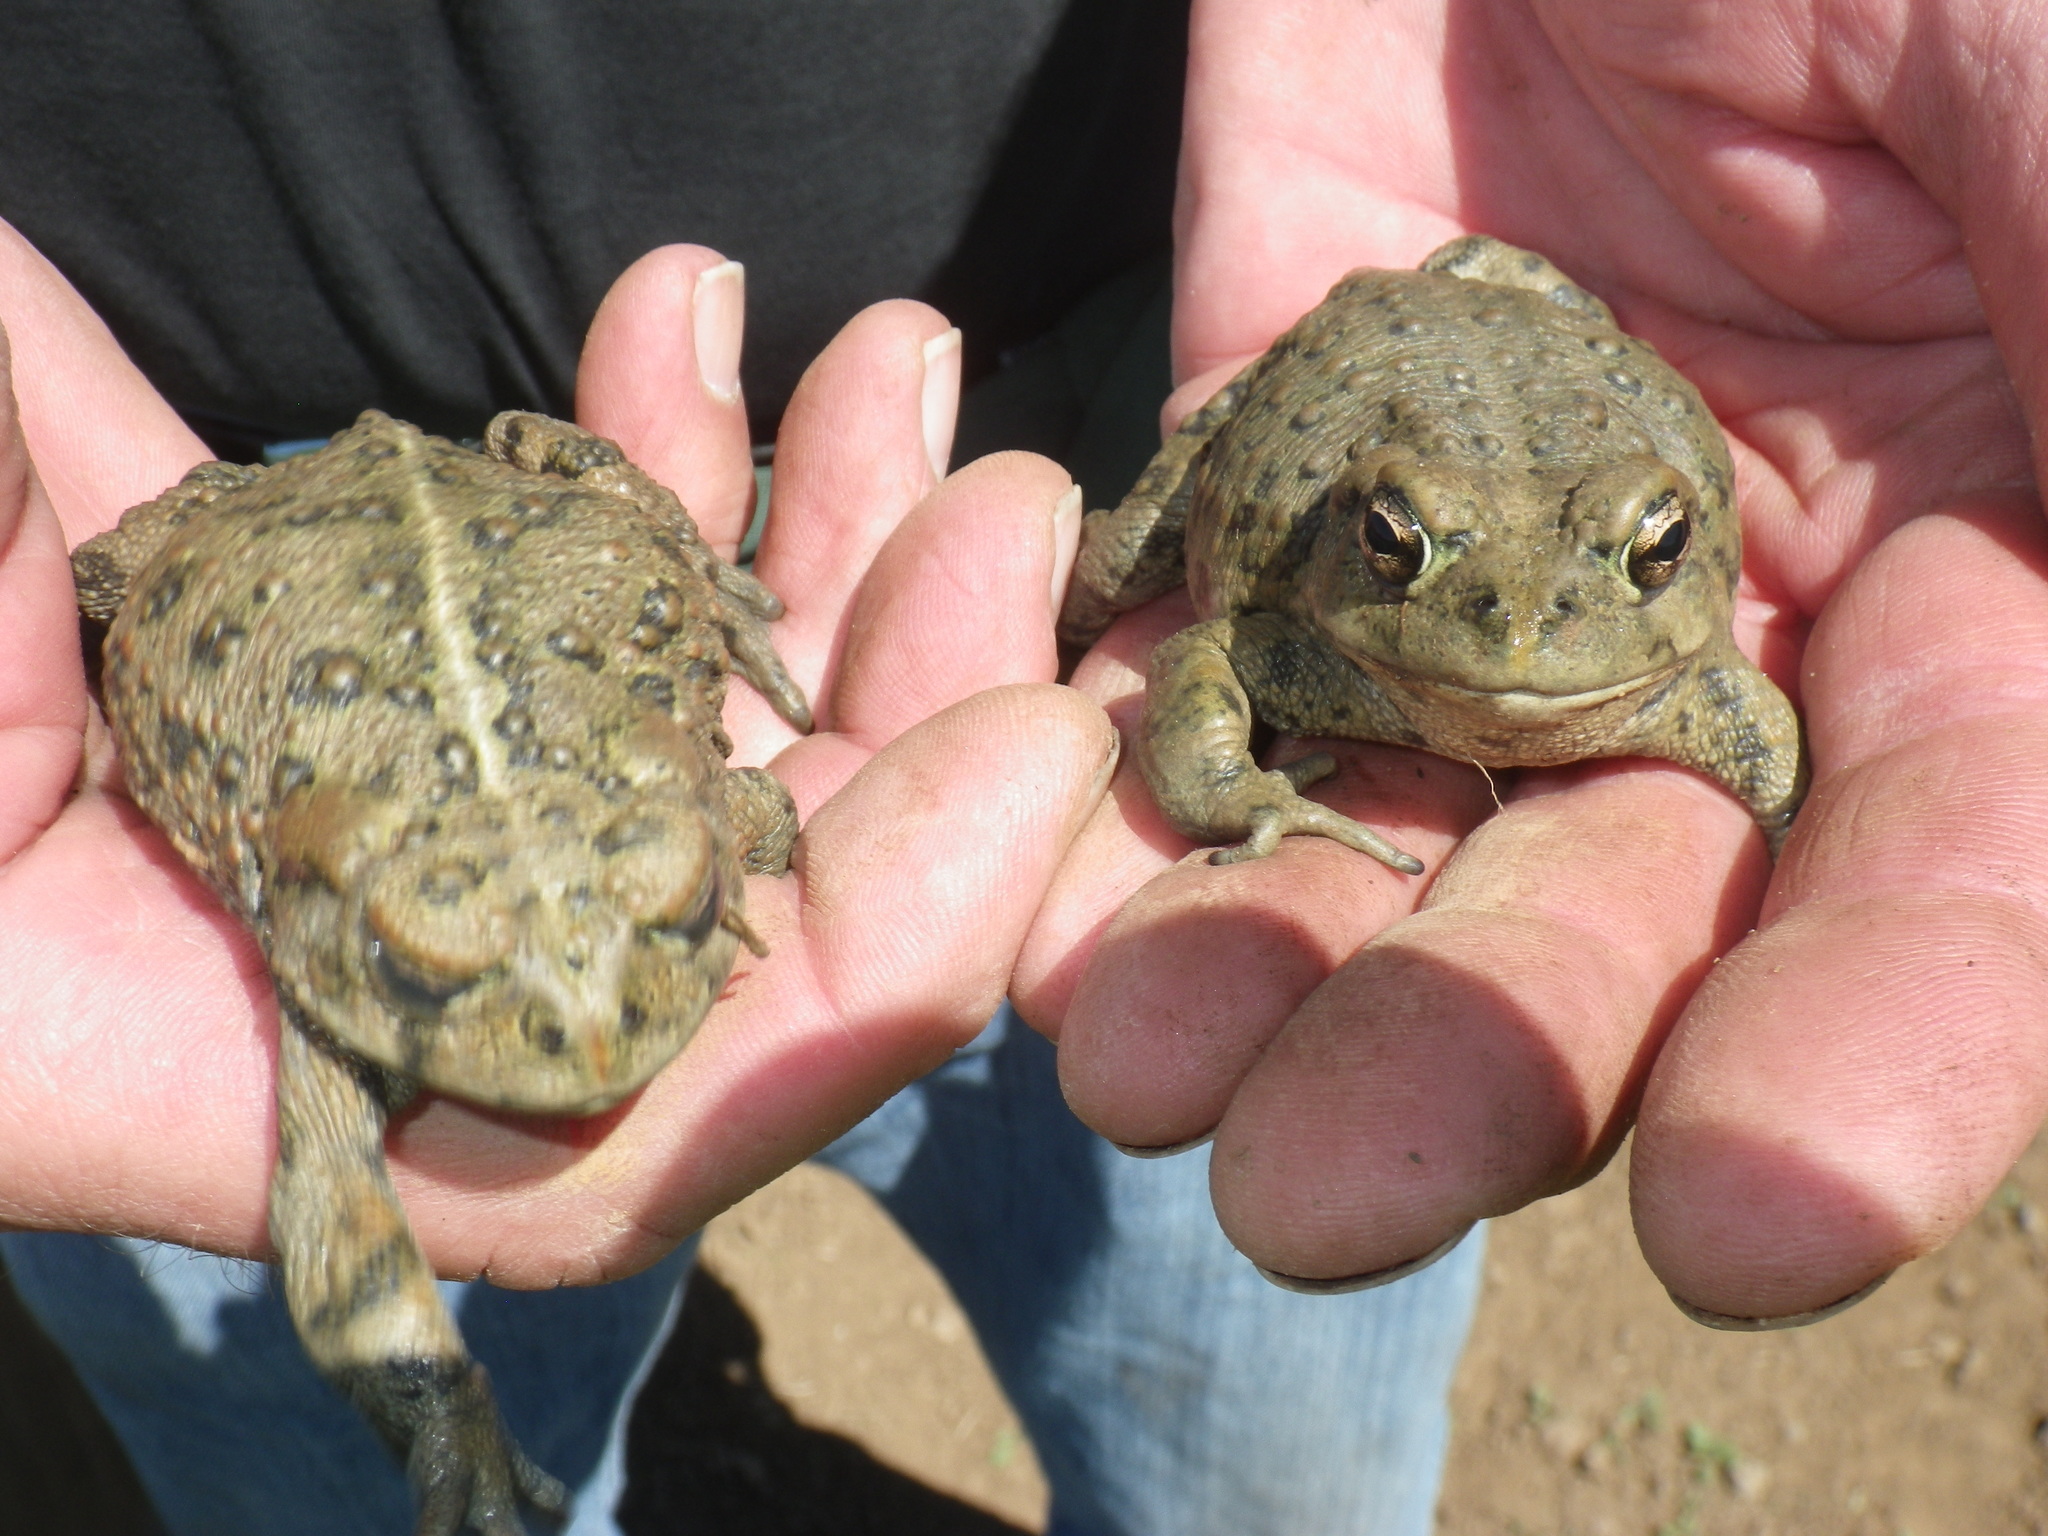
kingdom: Animalia
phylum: Chordata
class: Amphibia
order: Anura
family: Bufonidae
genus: Anaxyrus
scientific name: Anaxyrus boreas
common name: Western toad
